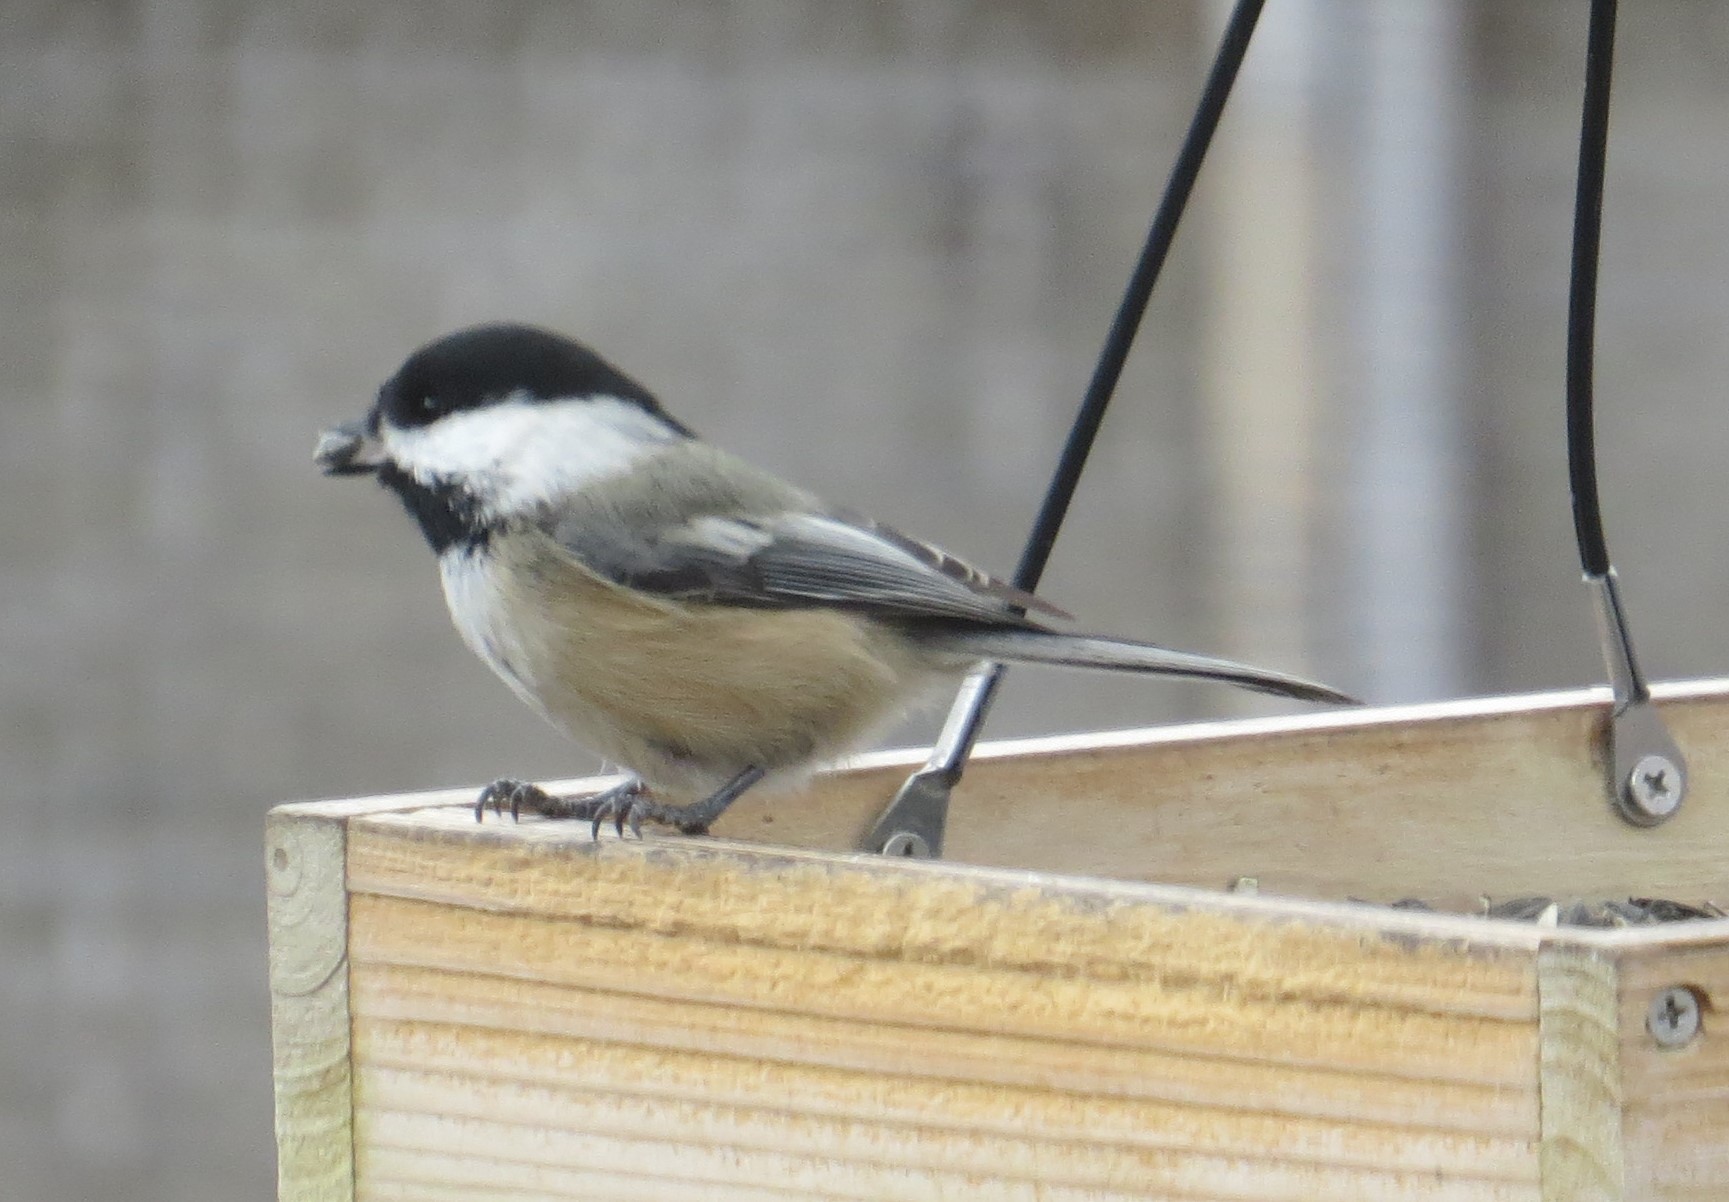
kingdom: Animalia
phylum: Chordata
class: Aves
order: Passeriformes
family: Paridae
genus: Poecile
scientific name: Poecile atricapillus
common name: Black-capped chickadee
